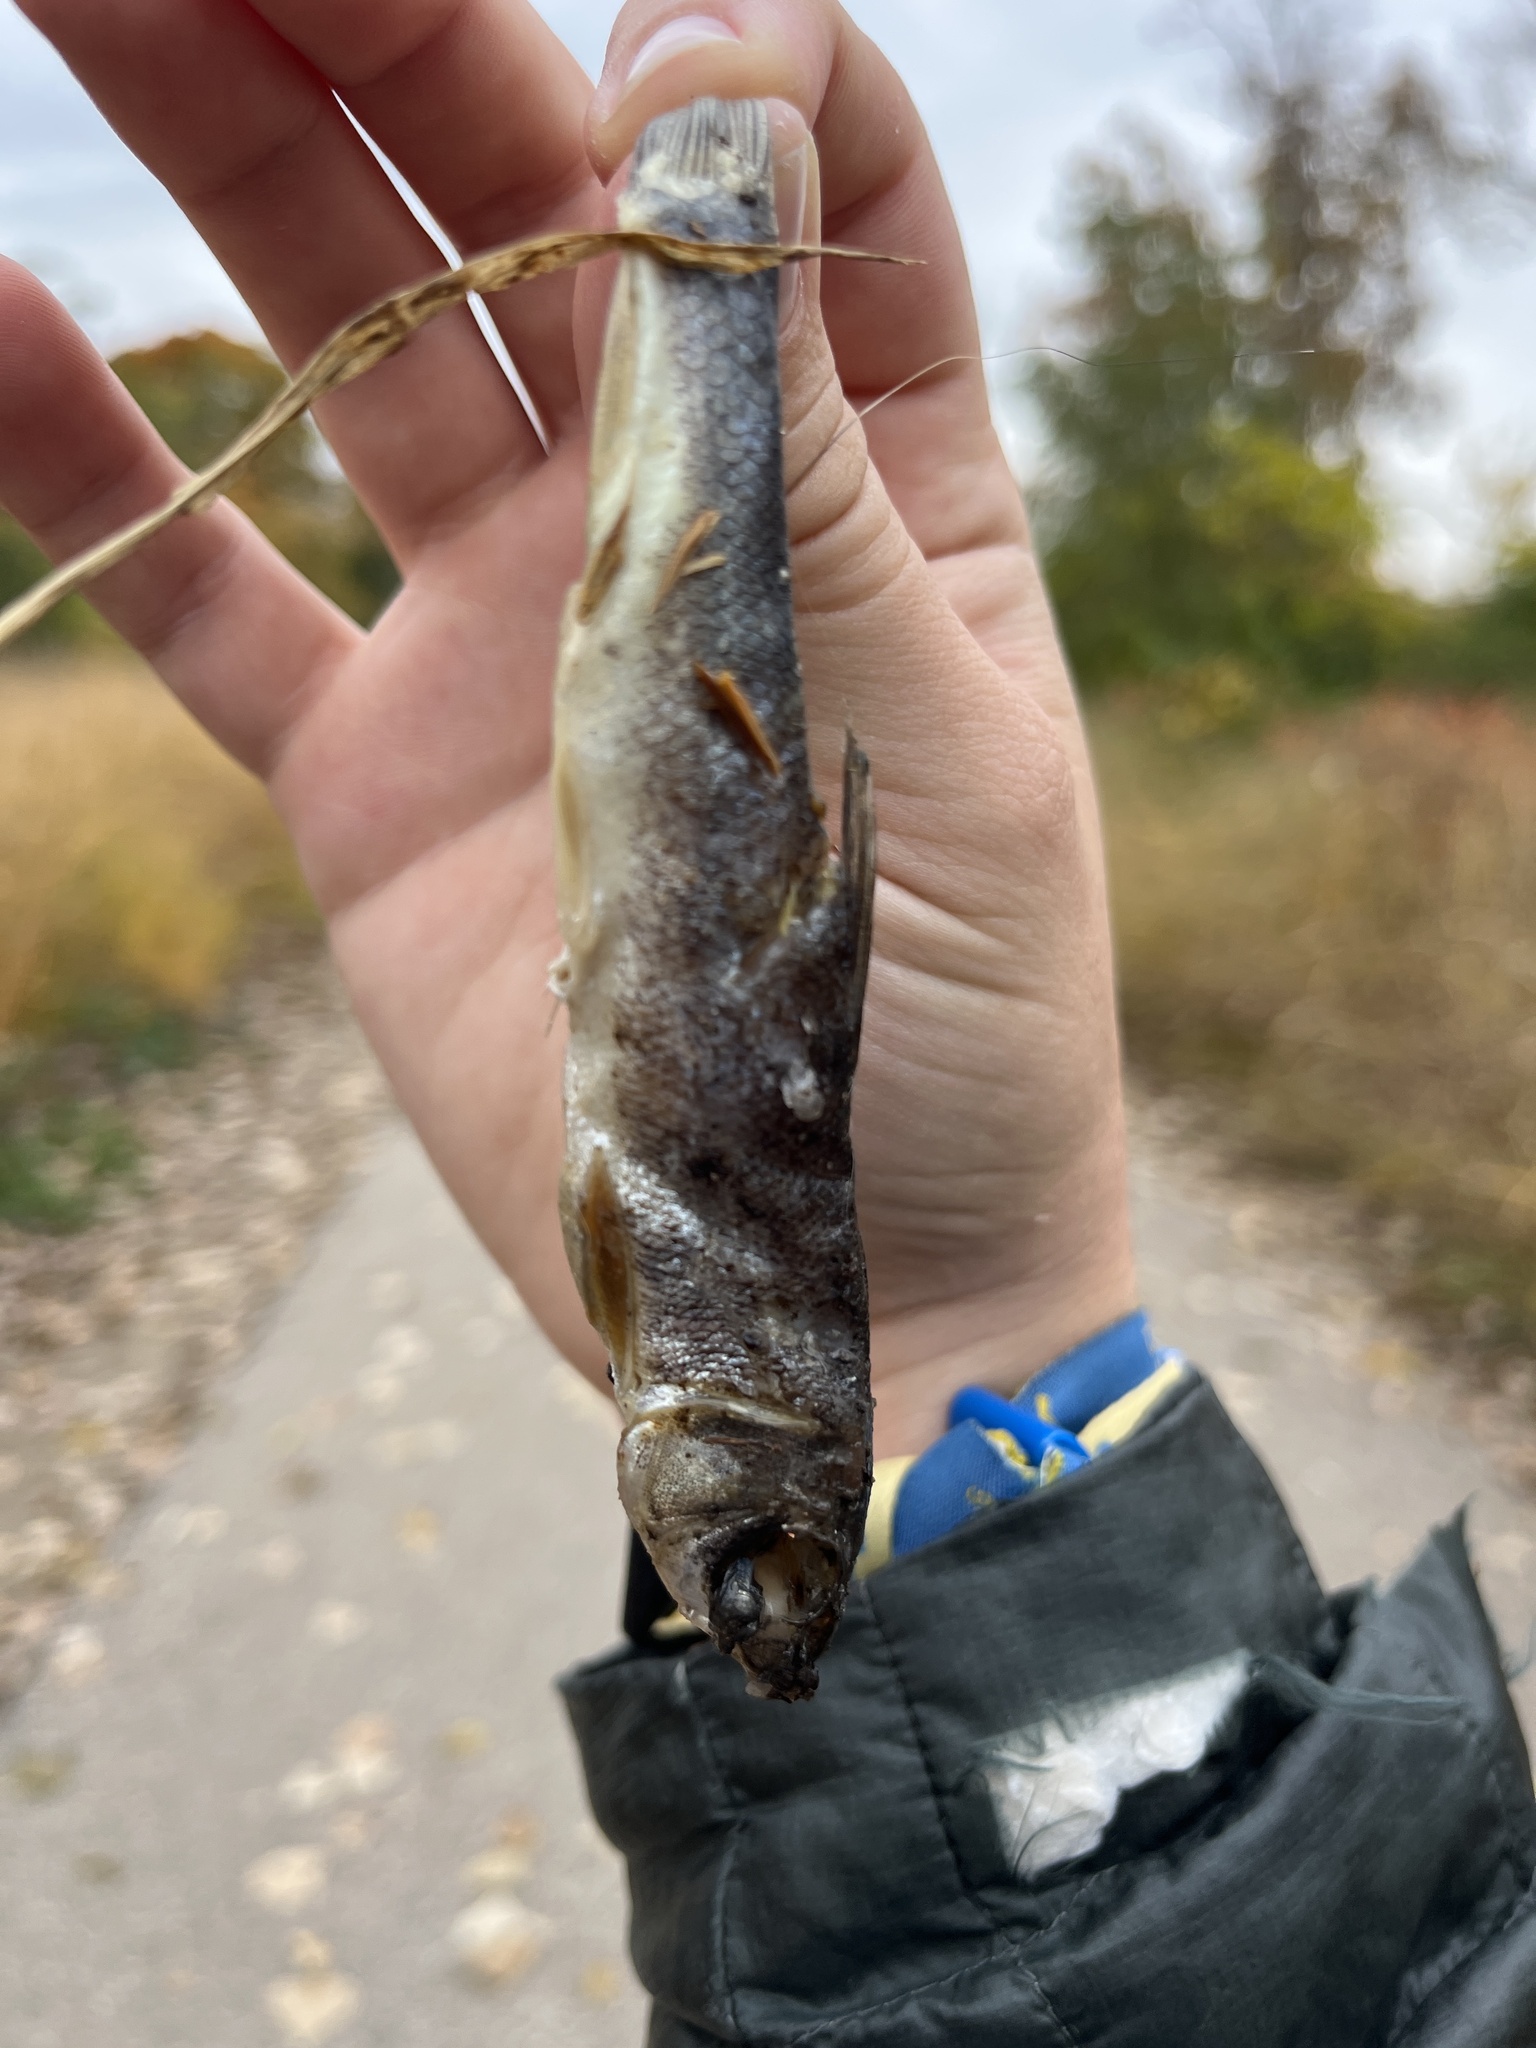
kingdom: Animalia
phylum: Chordata
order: Cypriniformes
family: Catostomidae
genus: Catostomus
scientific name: Catostomus commersonii
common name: White sucker
